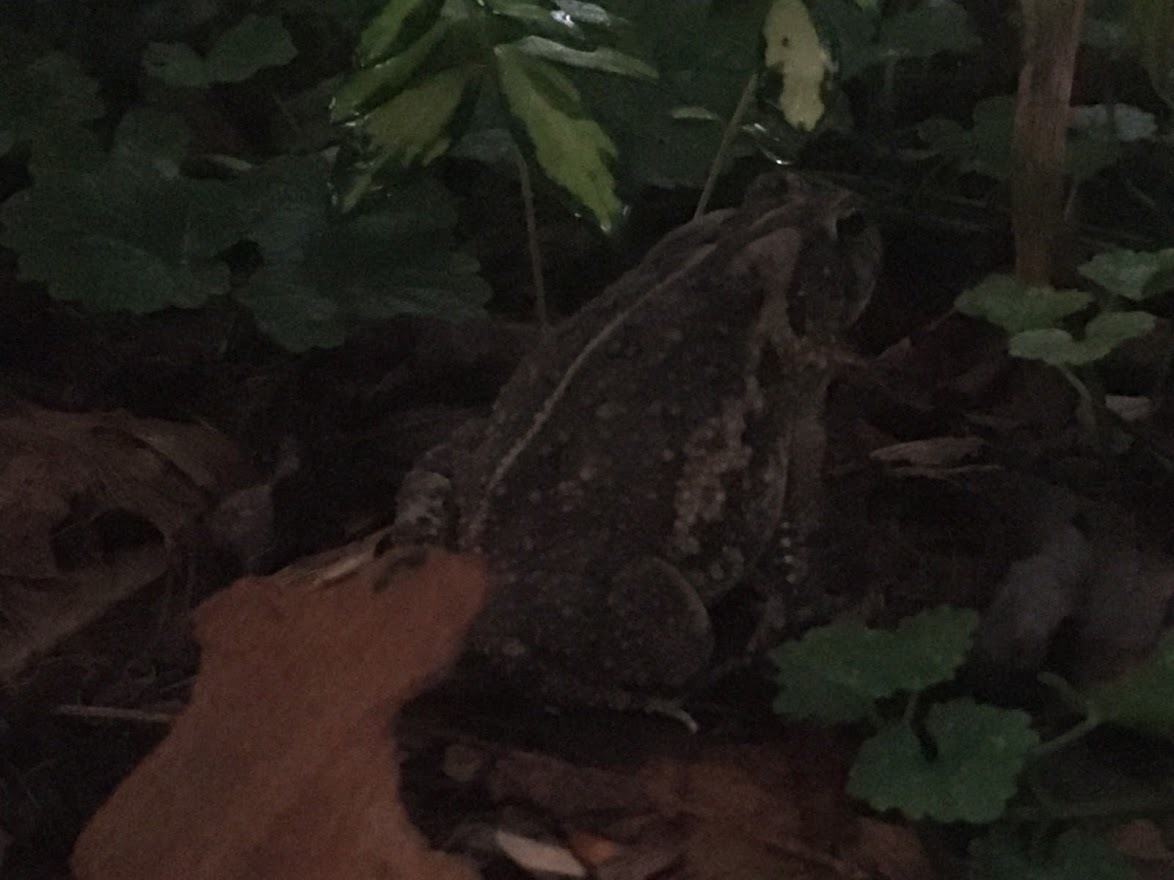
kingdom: Animalia
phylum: Chordata
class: Amphibia
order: Anura
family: Bufonidae
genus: Anaxyrus
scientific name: Anaxyrus americanus
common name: American toad
